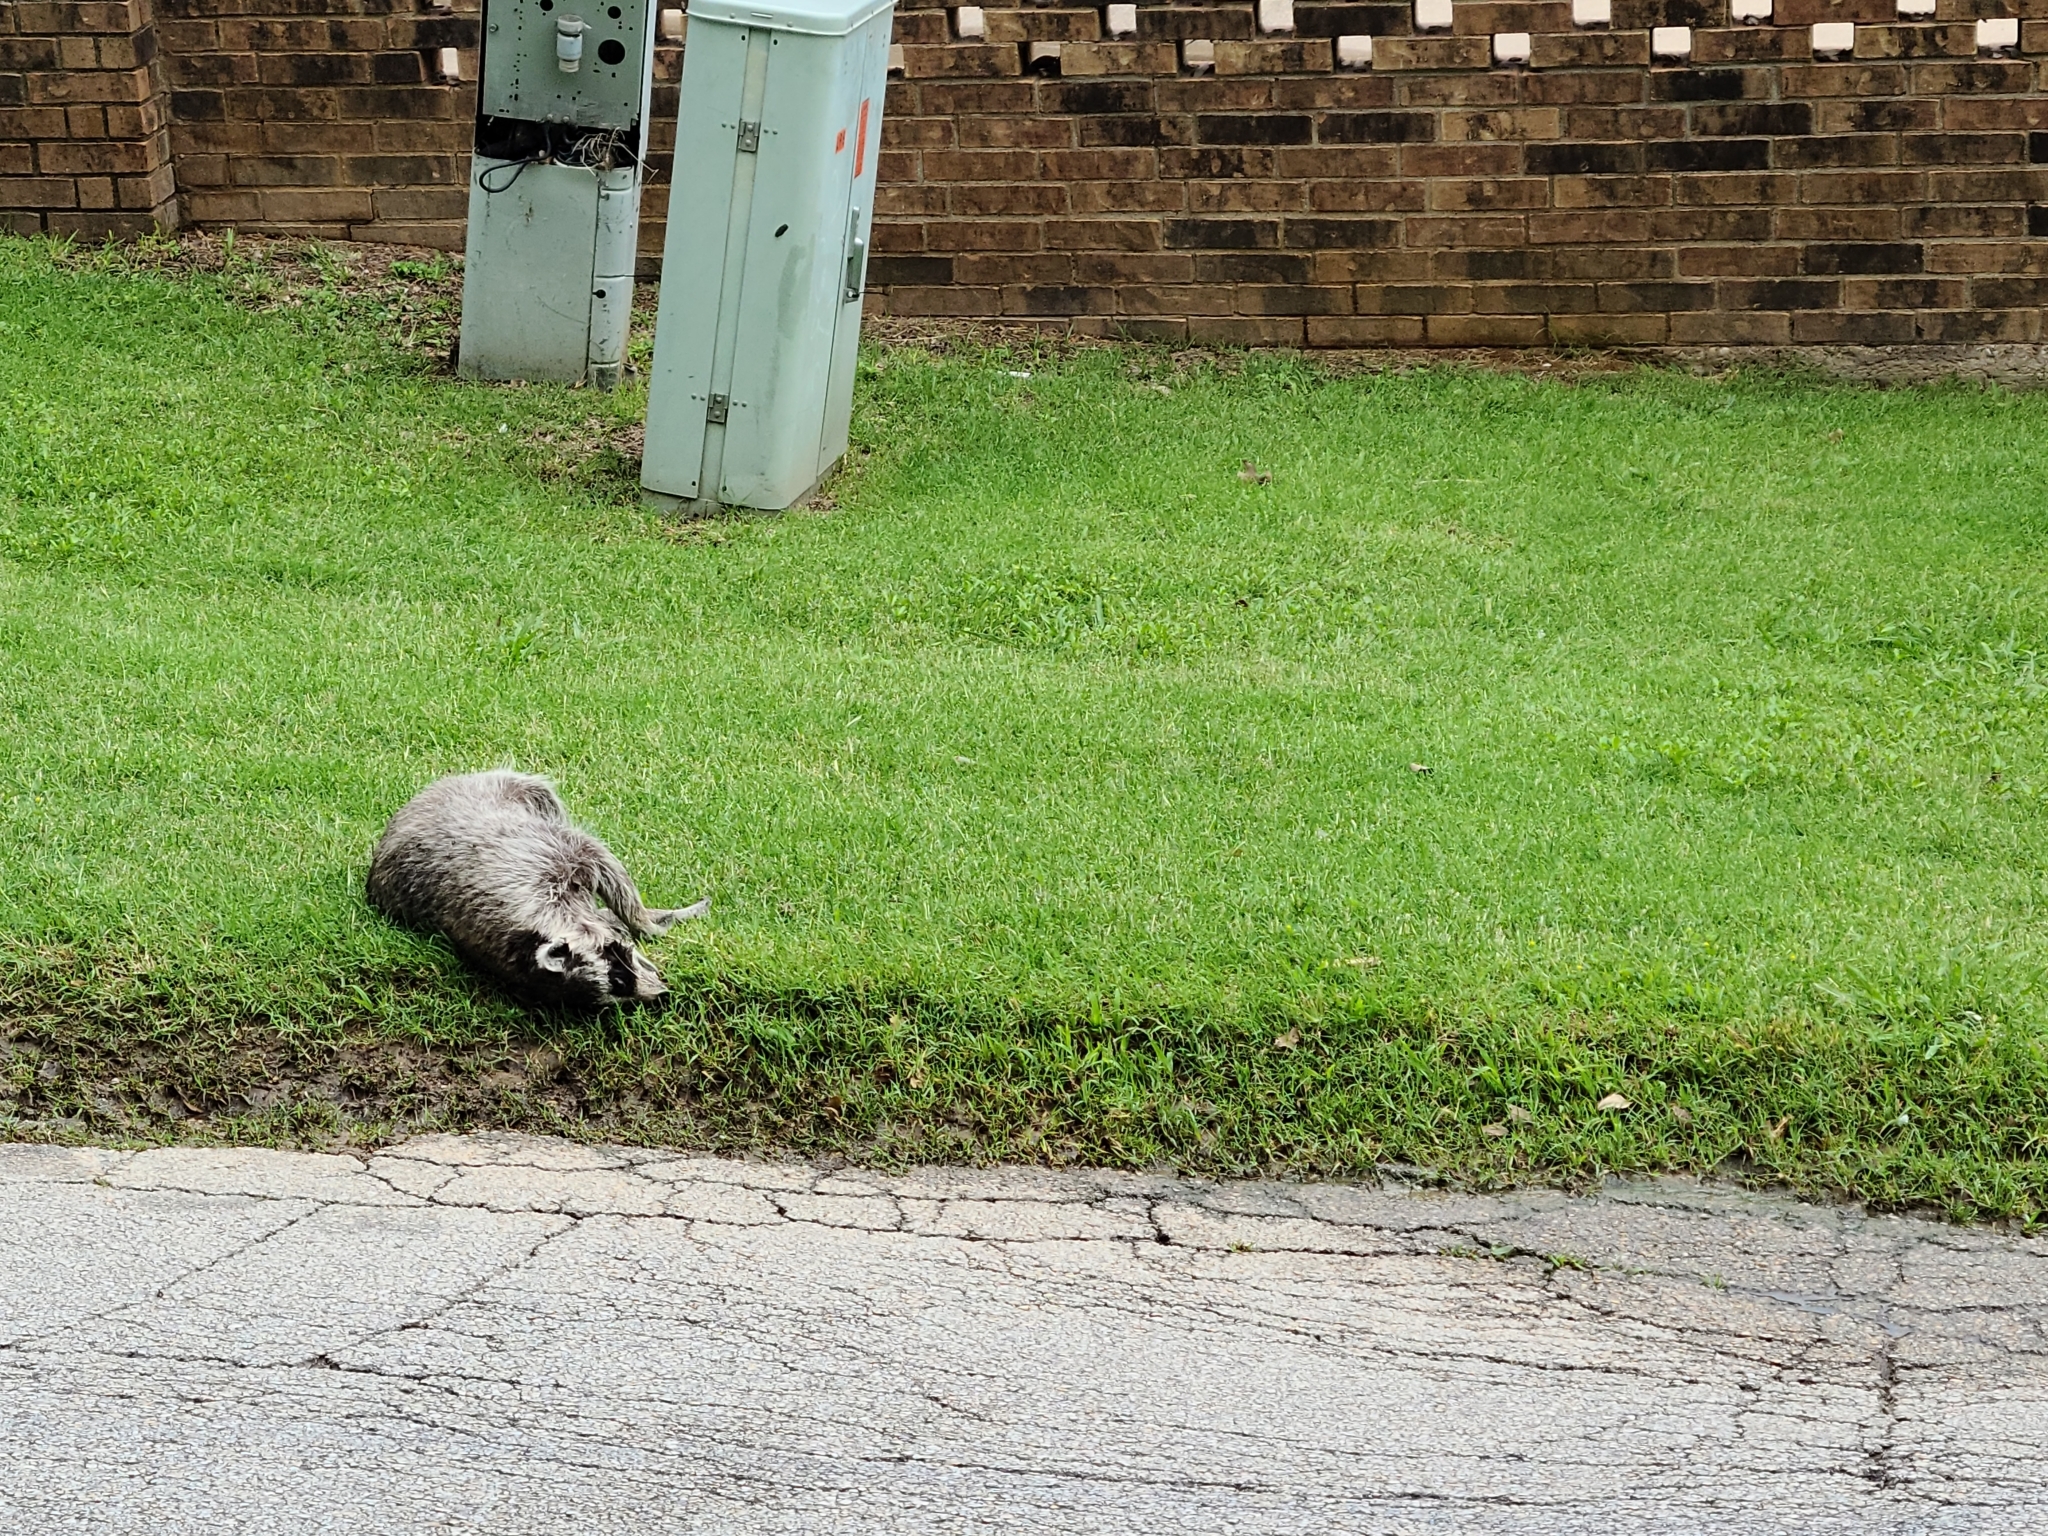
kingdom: Animalia
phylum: Chordata
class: Mammalia
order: Carnivora
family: Procyonidae
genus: Procyon
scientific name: Procyon lotor
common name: Raccoon
